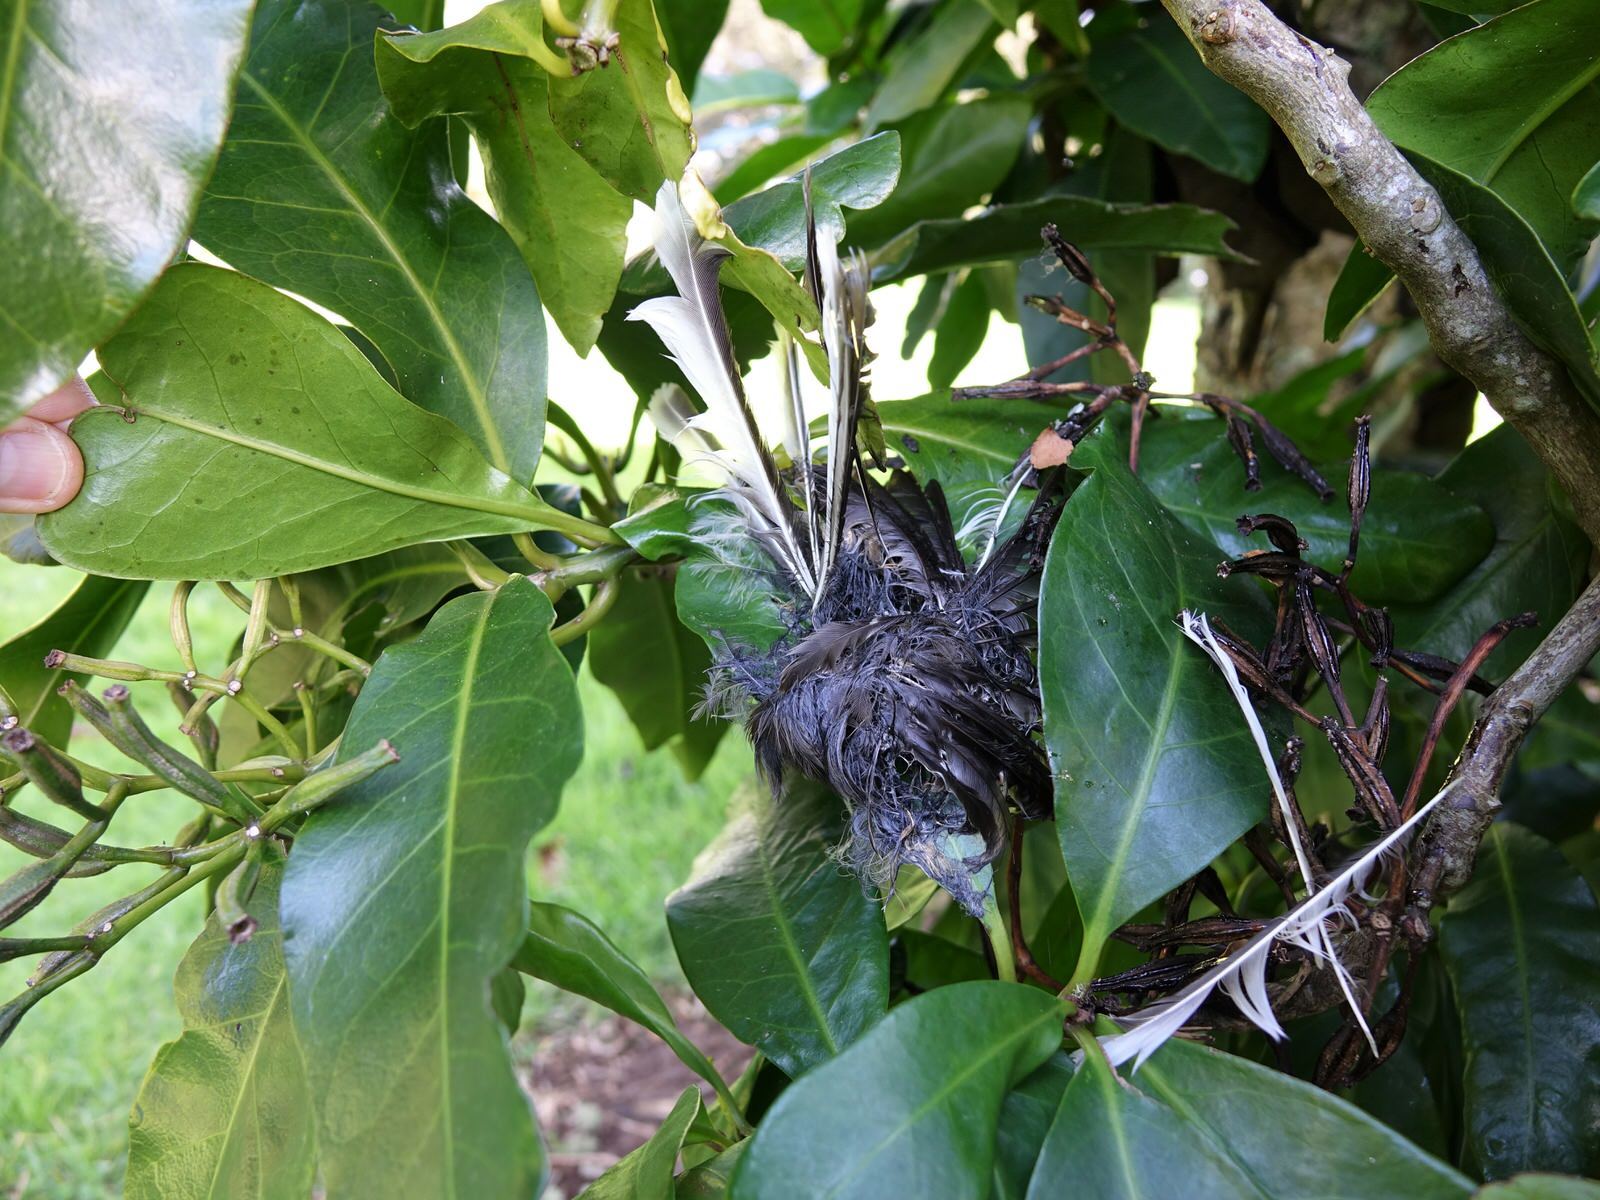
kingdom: Animalia
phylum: Chordata
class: Aves
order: Passeriformes
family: Rhipiduridae
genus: Rhipidura
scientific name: Rhipidura fuliginosa
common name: New zealand fantail
